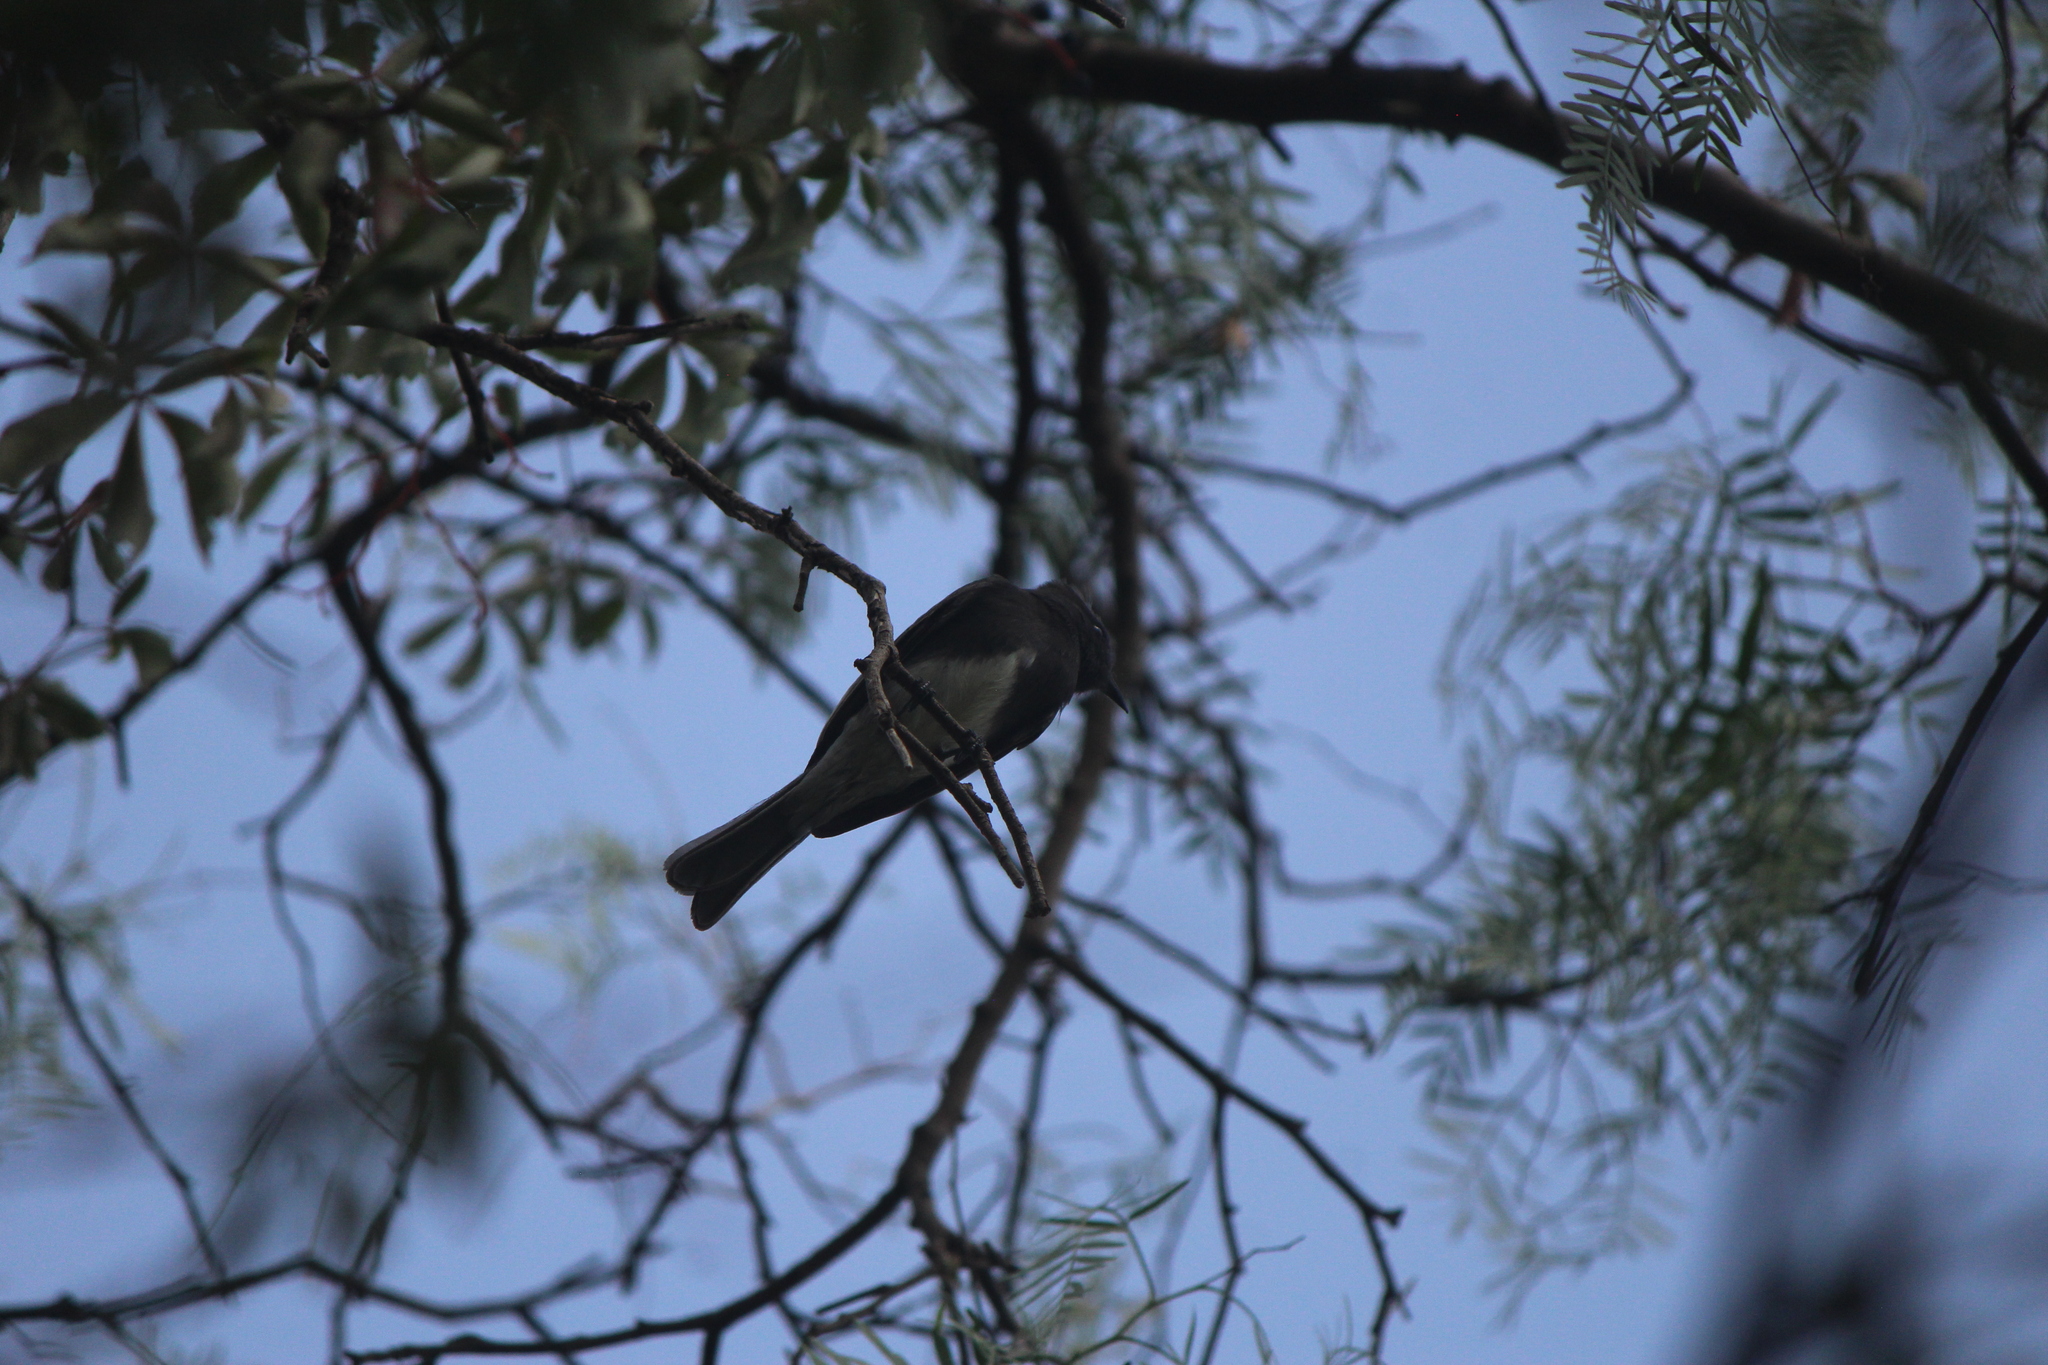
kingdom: Animalia
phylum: Chordata
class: Aves
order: Passeriformes
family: Tyrannidae
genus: Sayornis
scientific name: Sayornis nigricans
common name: Black phoebe
